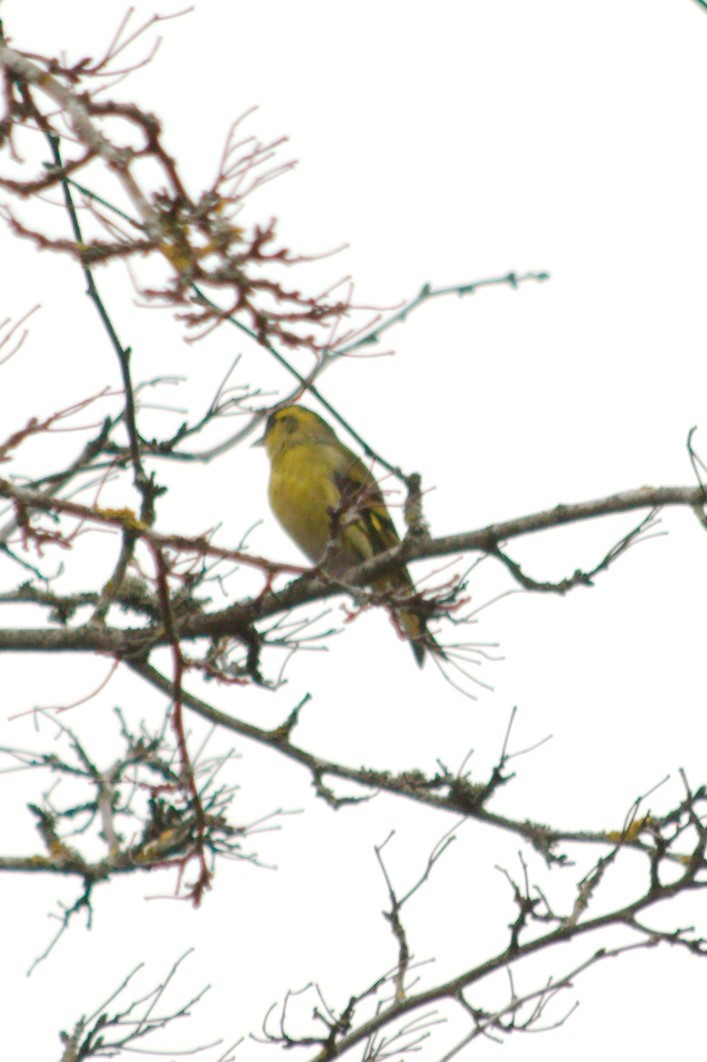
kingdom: Animalia
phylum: Chordata
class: Aves
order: Passeriformes
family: Fringillidae
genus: Spinus
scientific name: Spinus spinus
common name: Eurasian siskin
